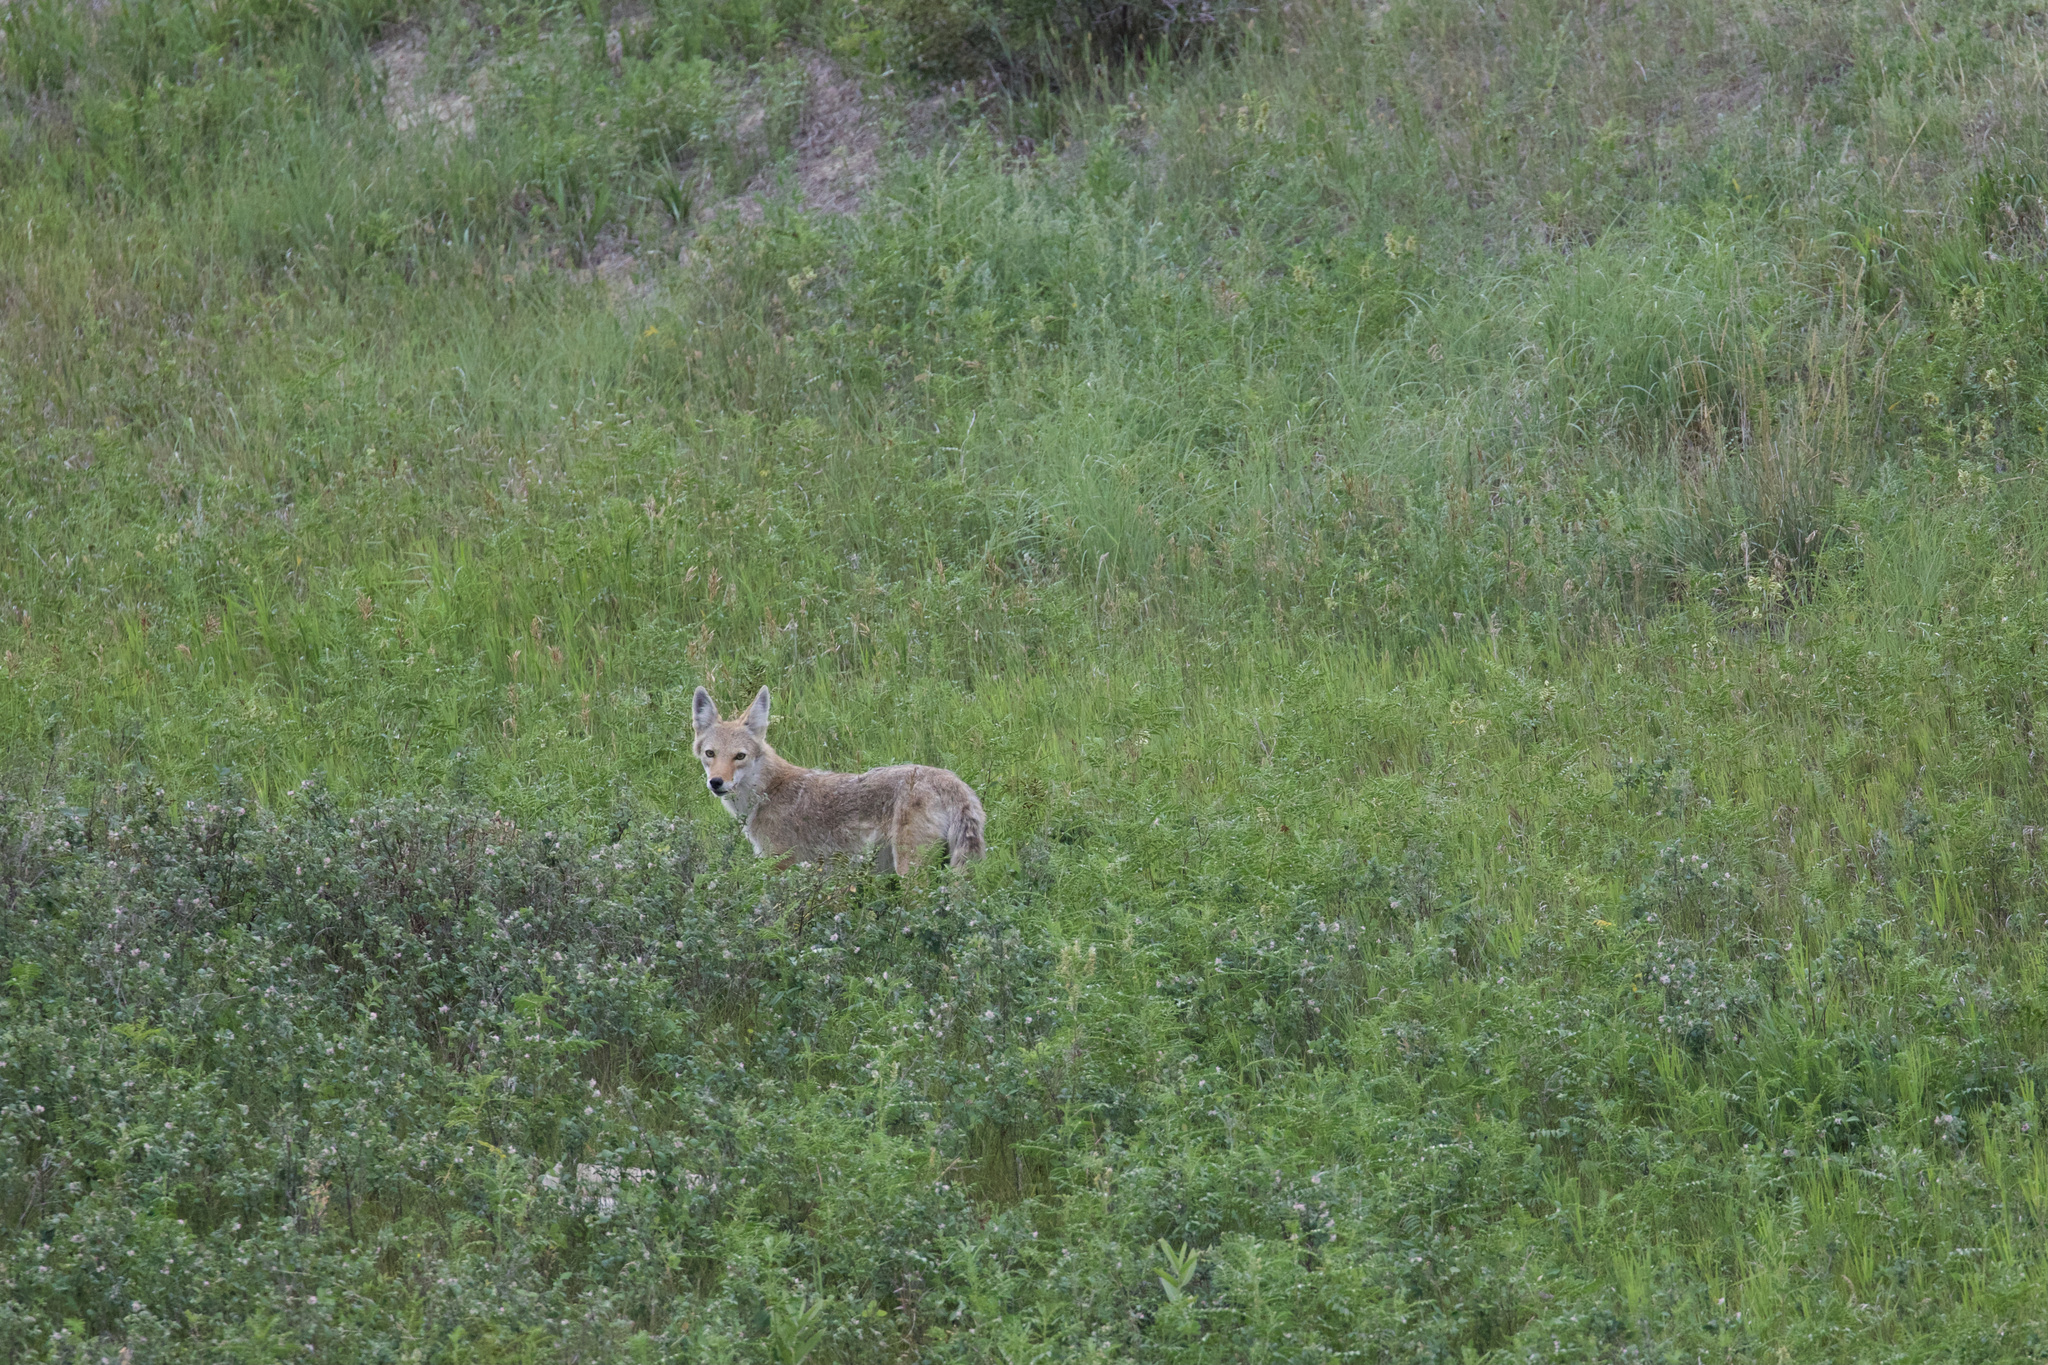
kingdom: Animalia
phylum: Chordata
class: Mammalia
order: Carnivora
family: Canidae
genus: Canis
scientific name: Canis latrans
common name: Coyote
